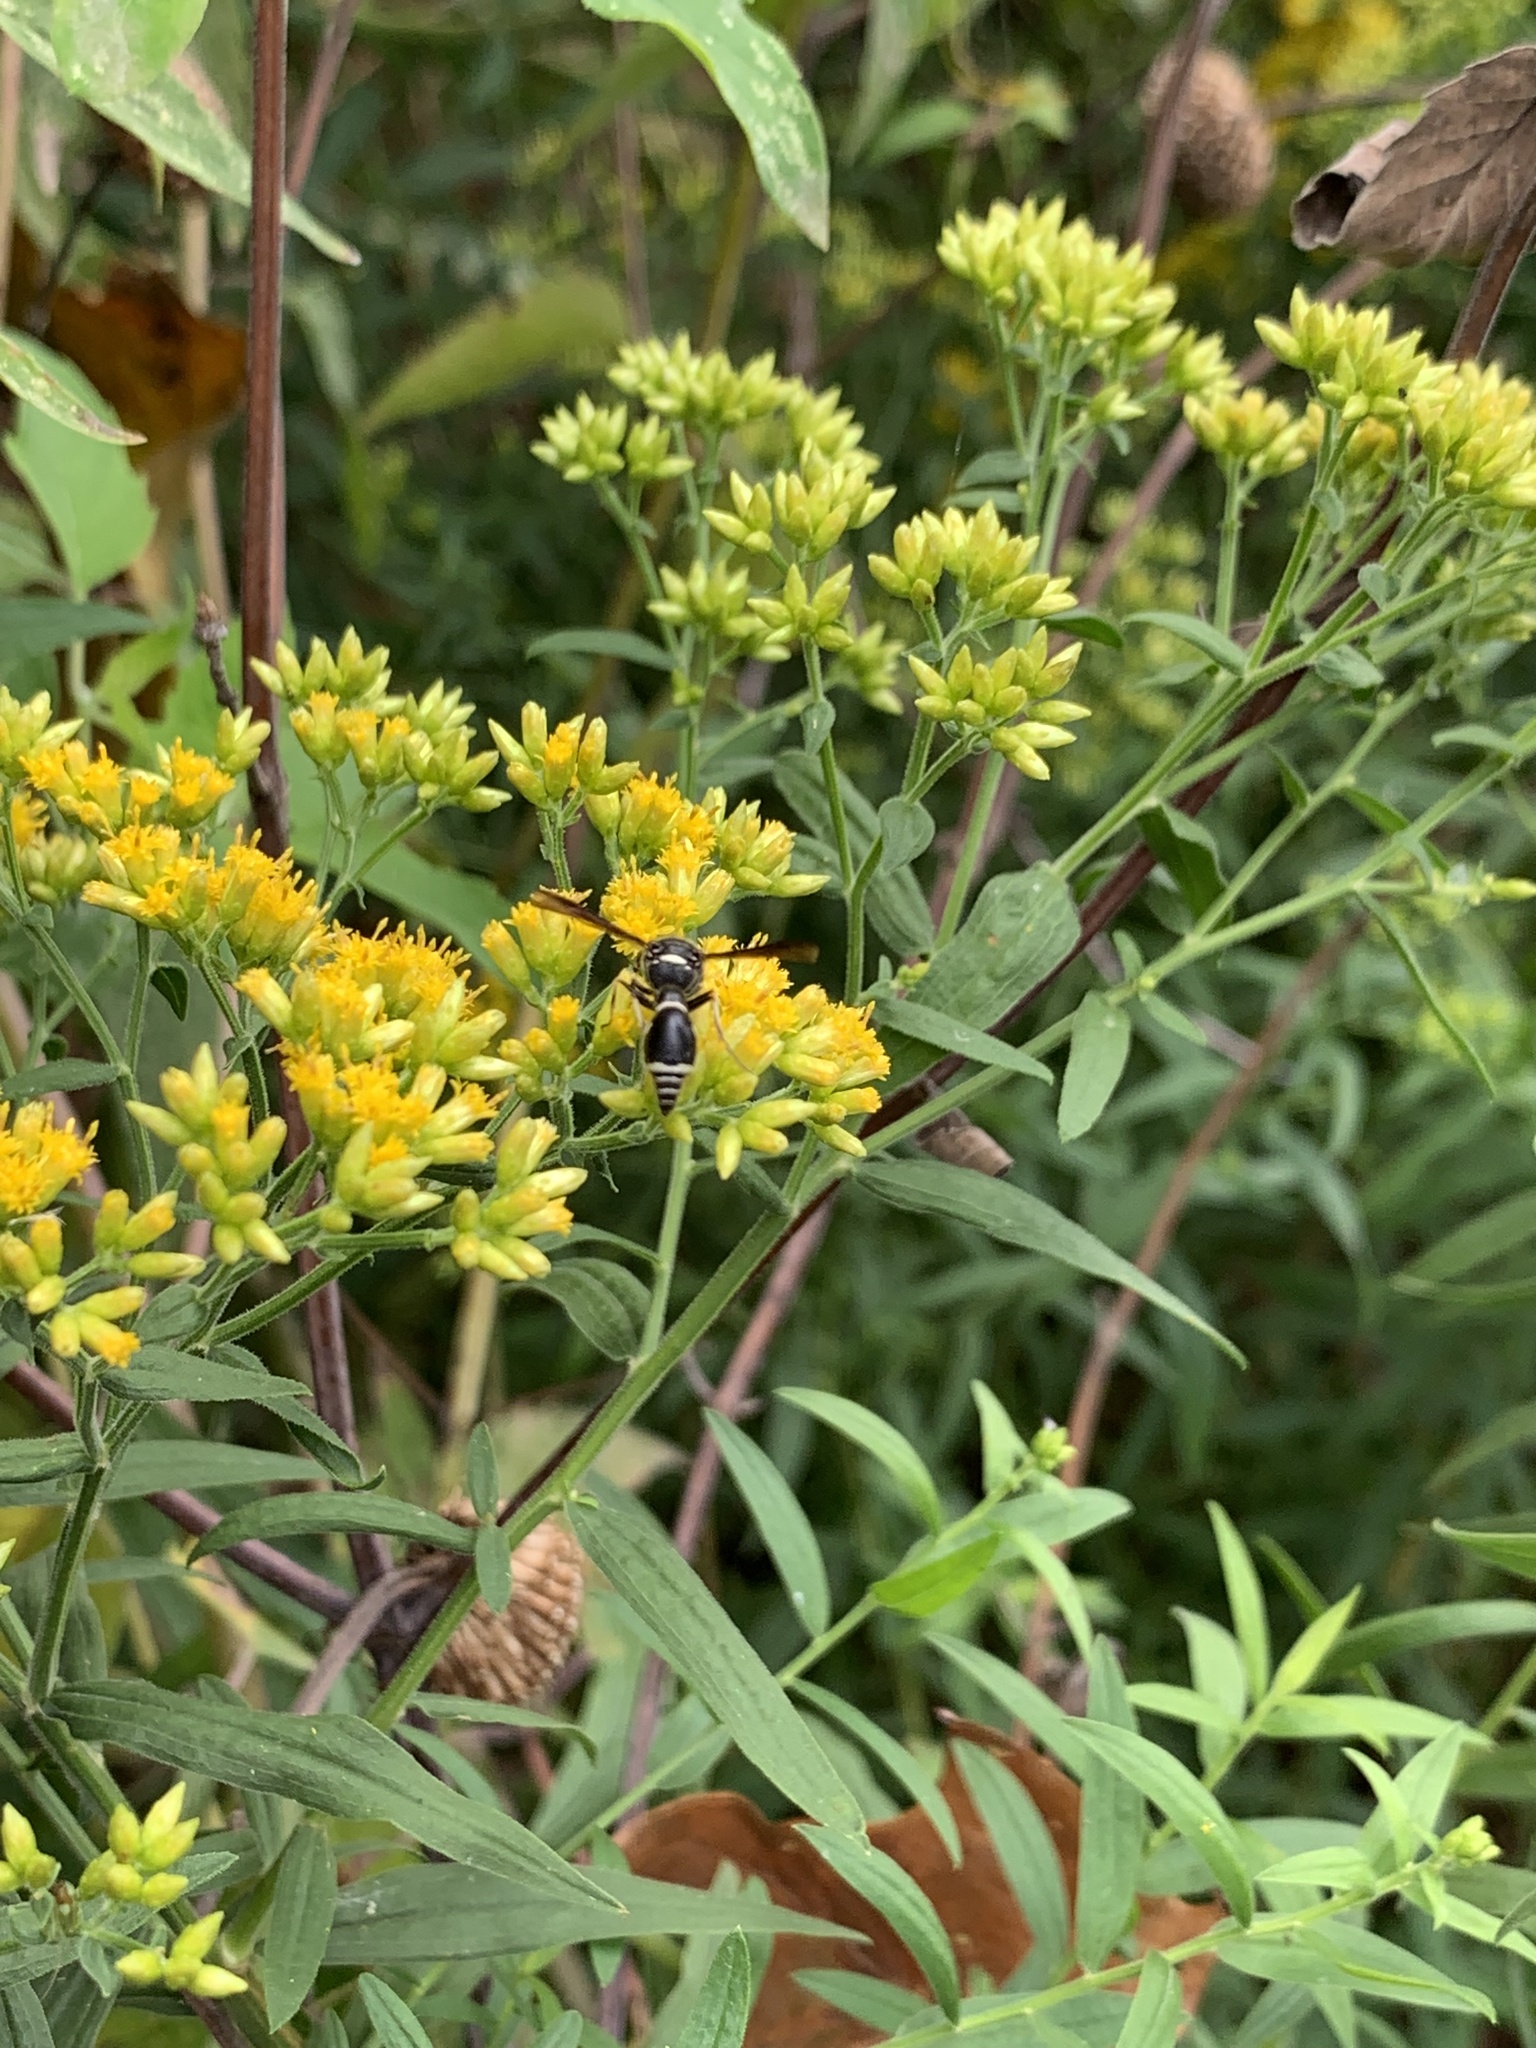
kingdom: Animalia
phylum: Arthropoda
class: Insecta
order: Hymenoptera
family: Vespidae
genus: Eumenes
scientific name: Eumenes fraternus
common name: Fraternal potter wasp
